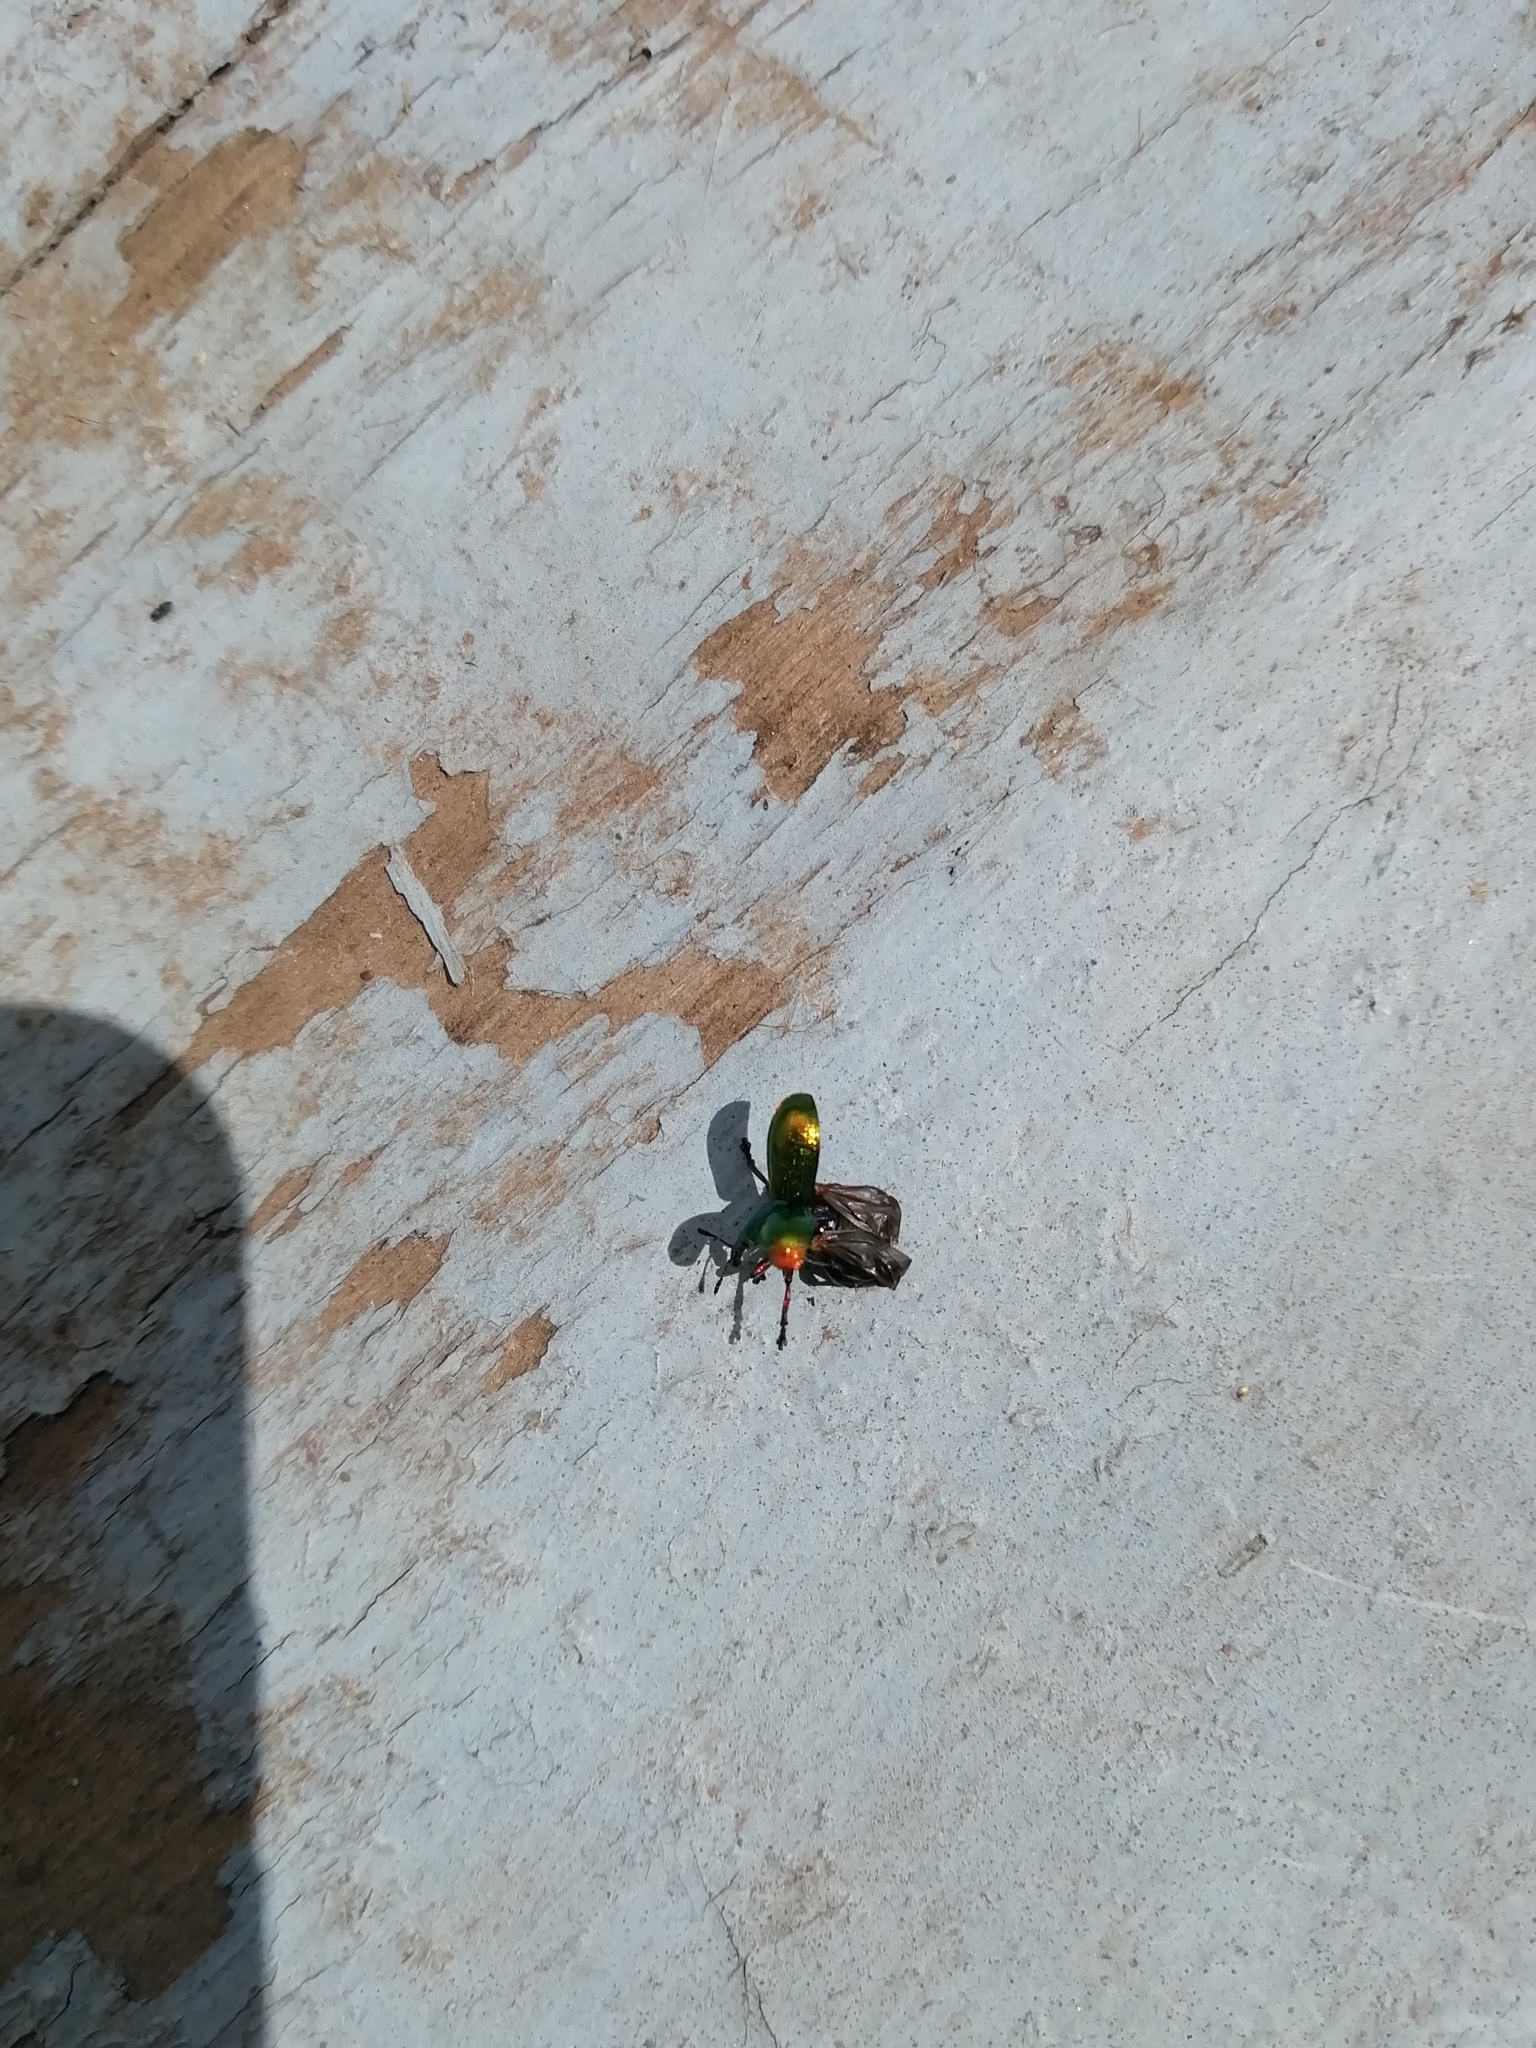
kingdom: Animalia
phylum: Arthropoda
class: Insecta
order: Coleoptera
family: Attelabidae
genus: Byctiscus
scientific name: Byctiscus betulae
